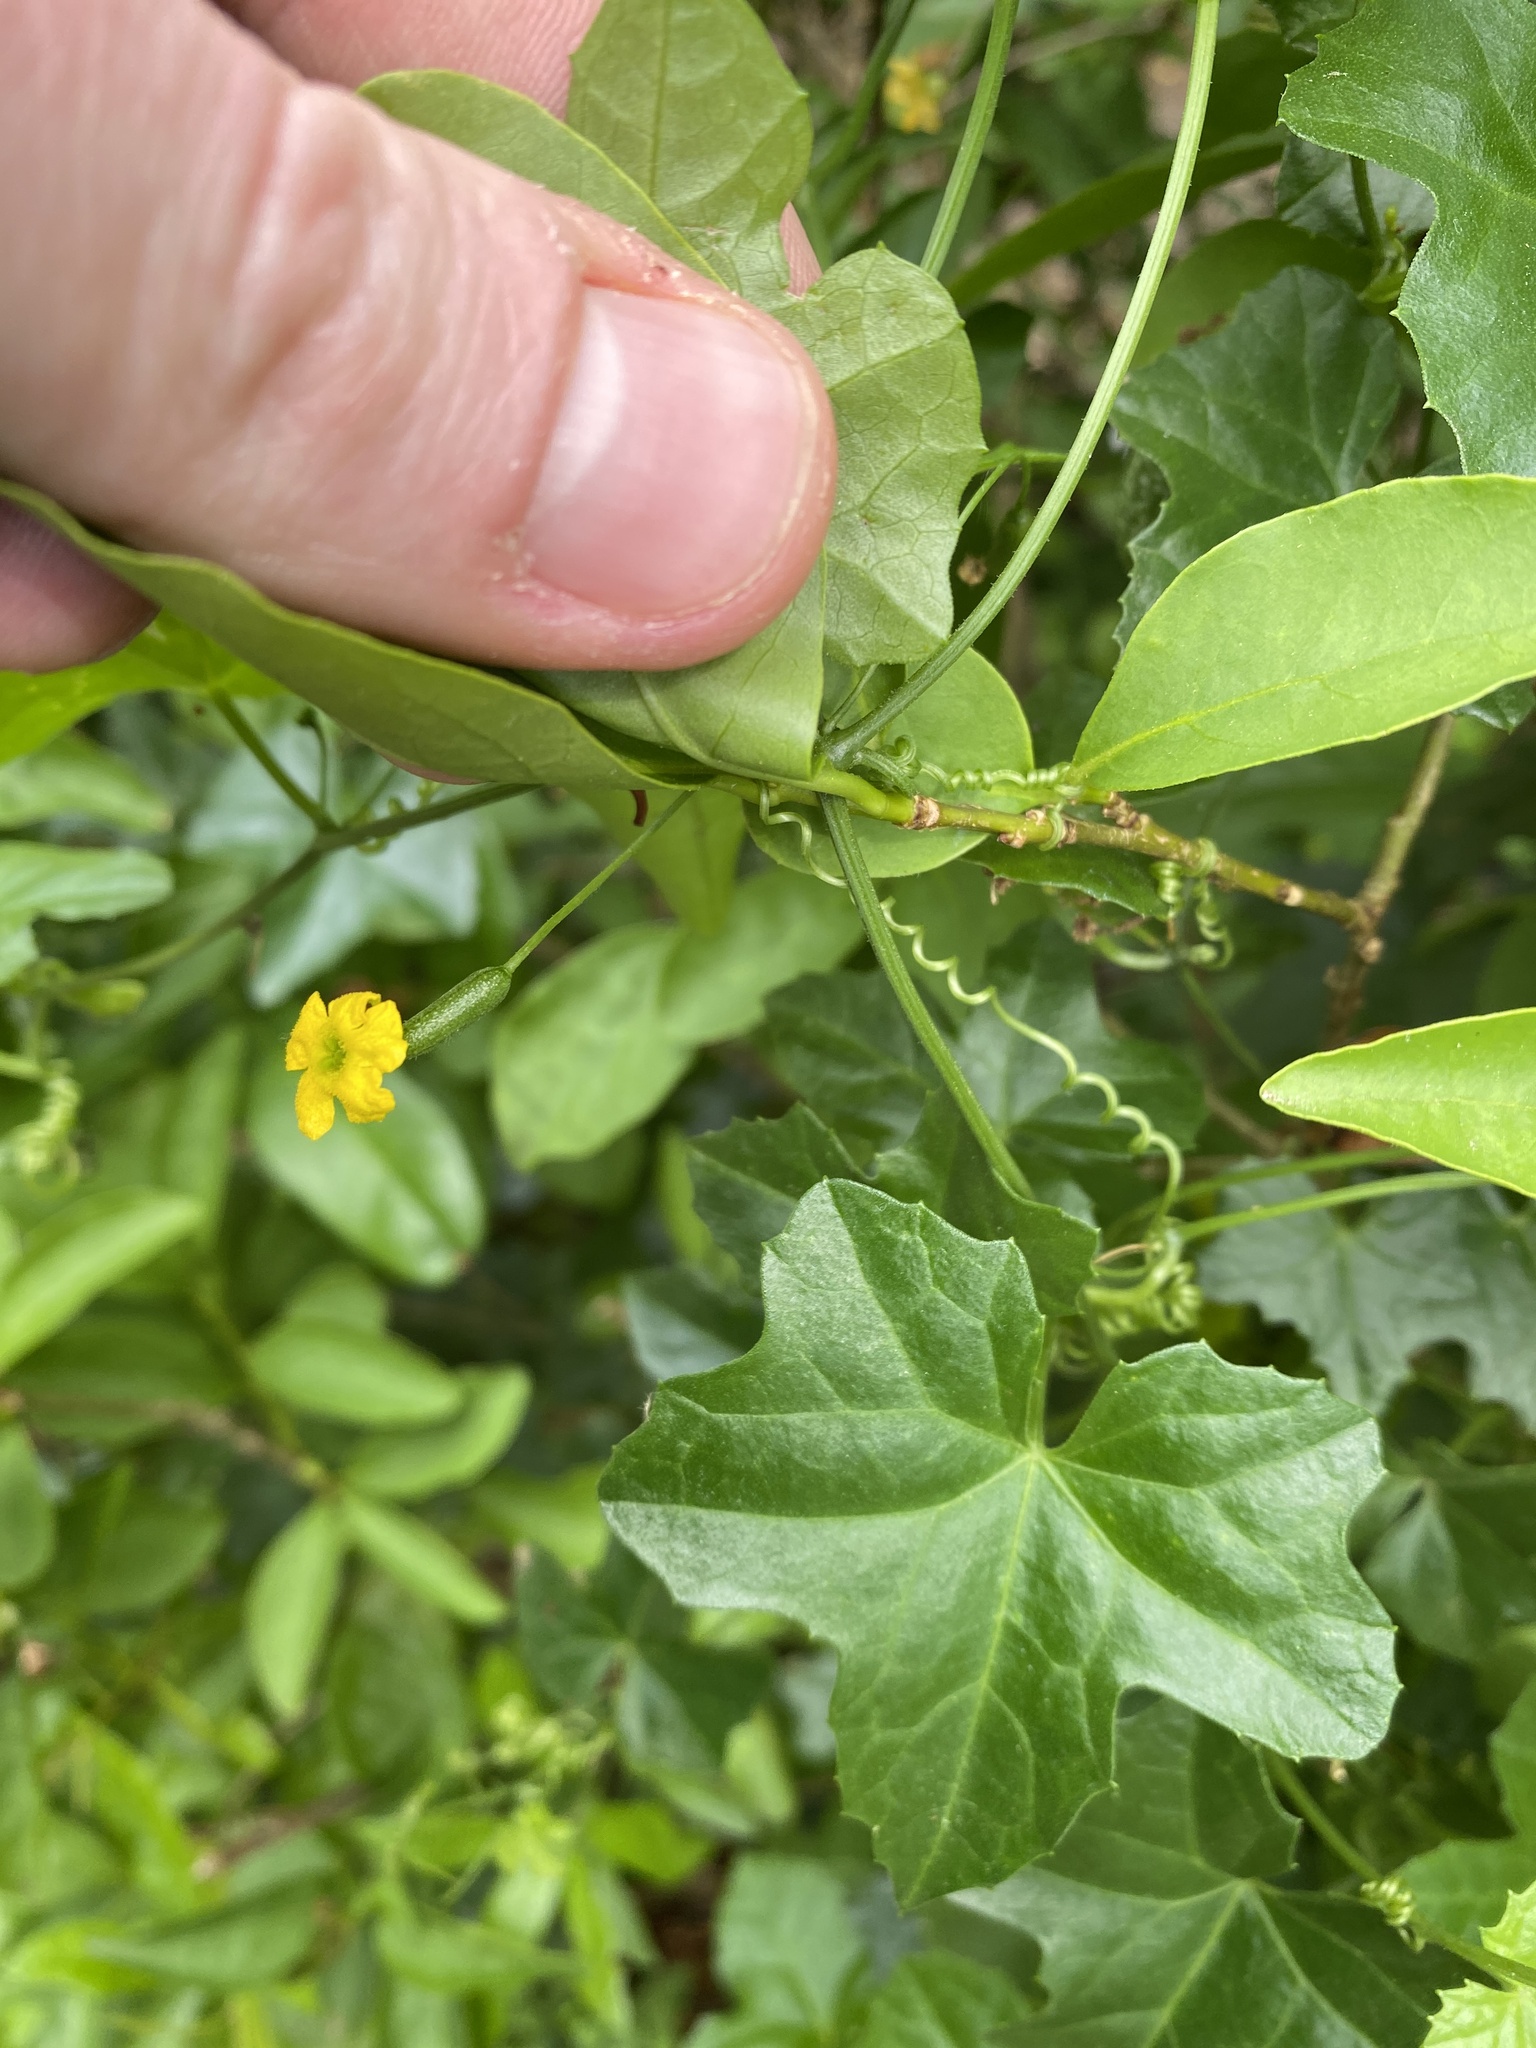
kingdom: Plantae
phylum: Tracheophyta
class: Magnoliopsida
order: Cucurbitales
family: Cucurbitaceae
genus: Melothria
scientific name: Melothria pendula
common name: Creeping-cucumber
